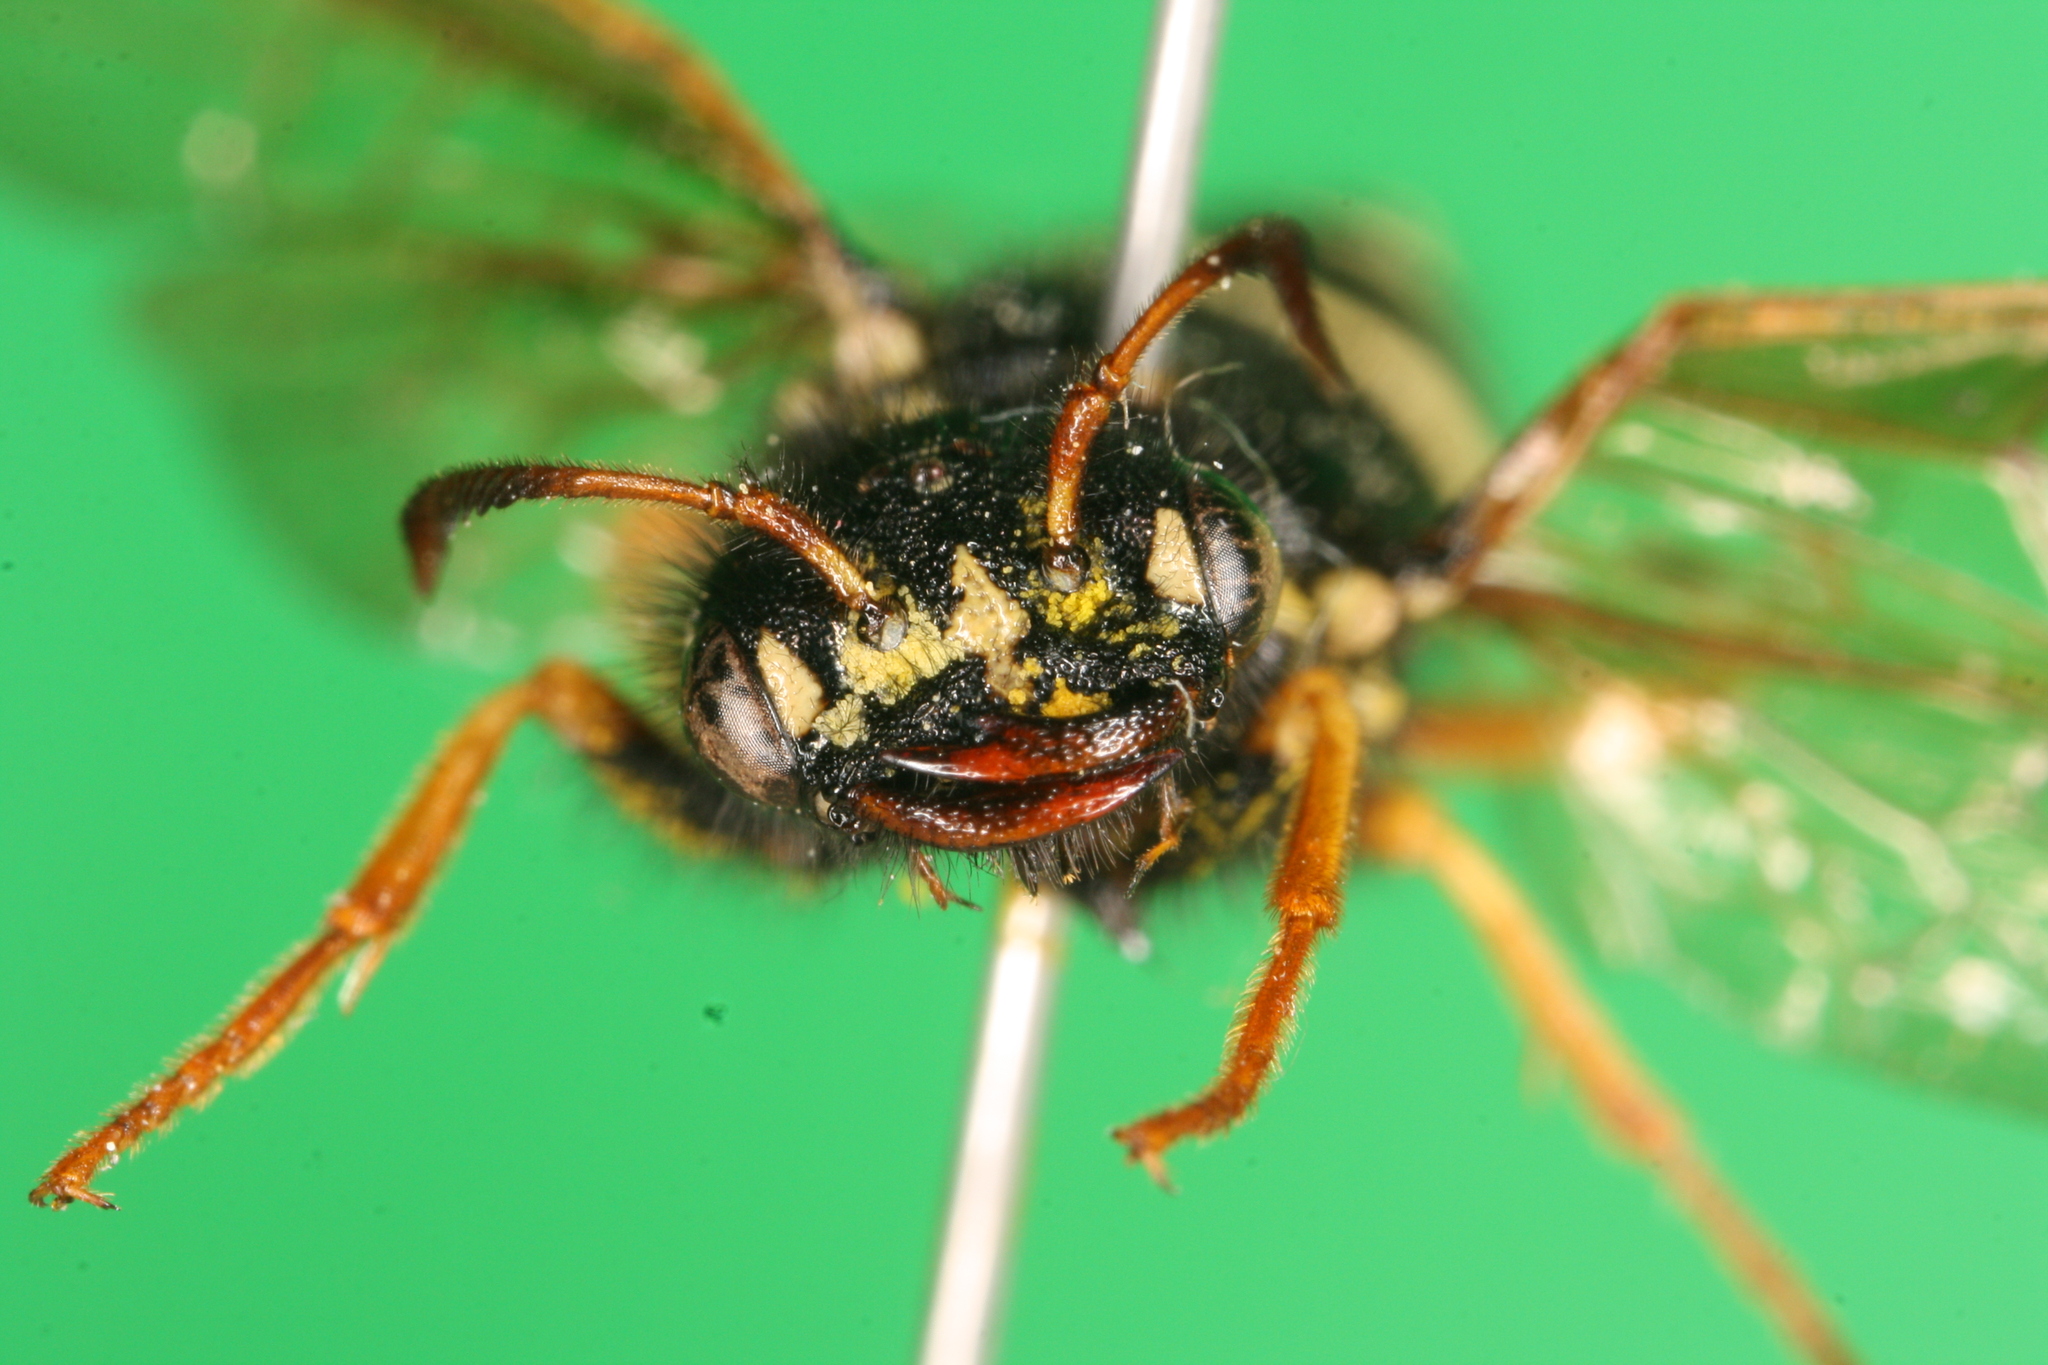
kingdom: Animalia
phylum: Arthropoda
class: Insecta
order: Hymenoptera
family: Megalodontesidae
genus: Megalodontes
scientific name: Megalodontes cephalotes
